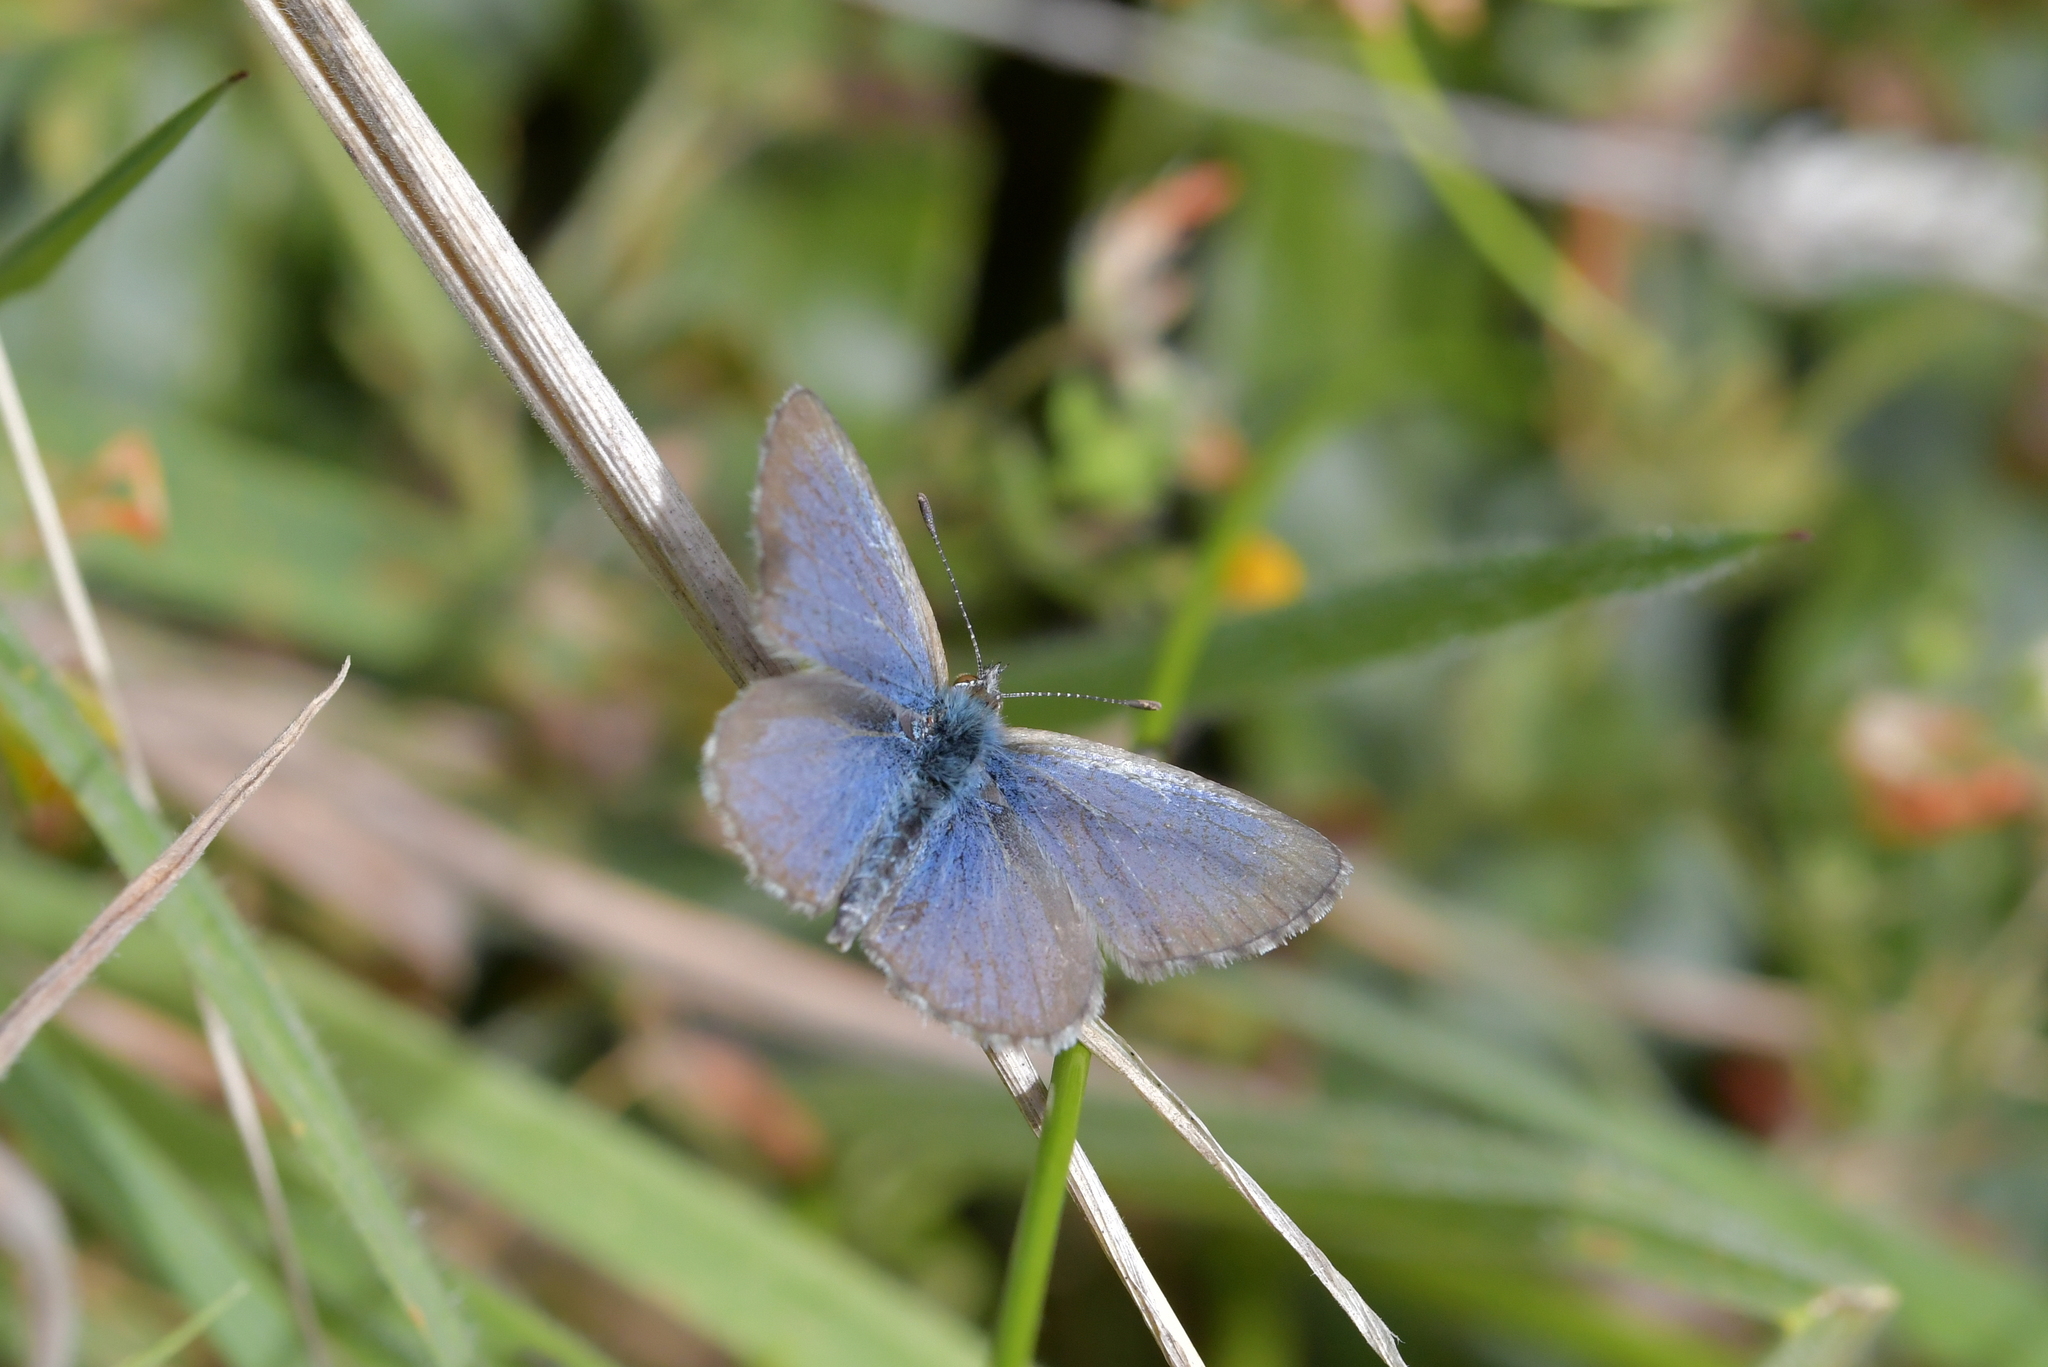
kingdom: Animalia
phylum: Arthropoda
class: Insecta
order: Lepidoptera
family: Lycaenidae
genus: Zizina
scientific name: Zizina labradus
